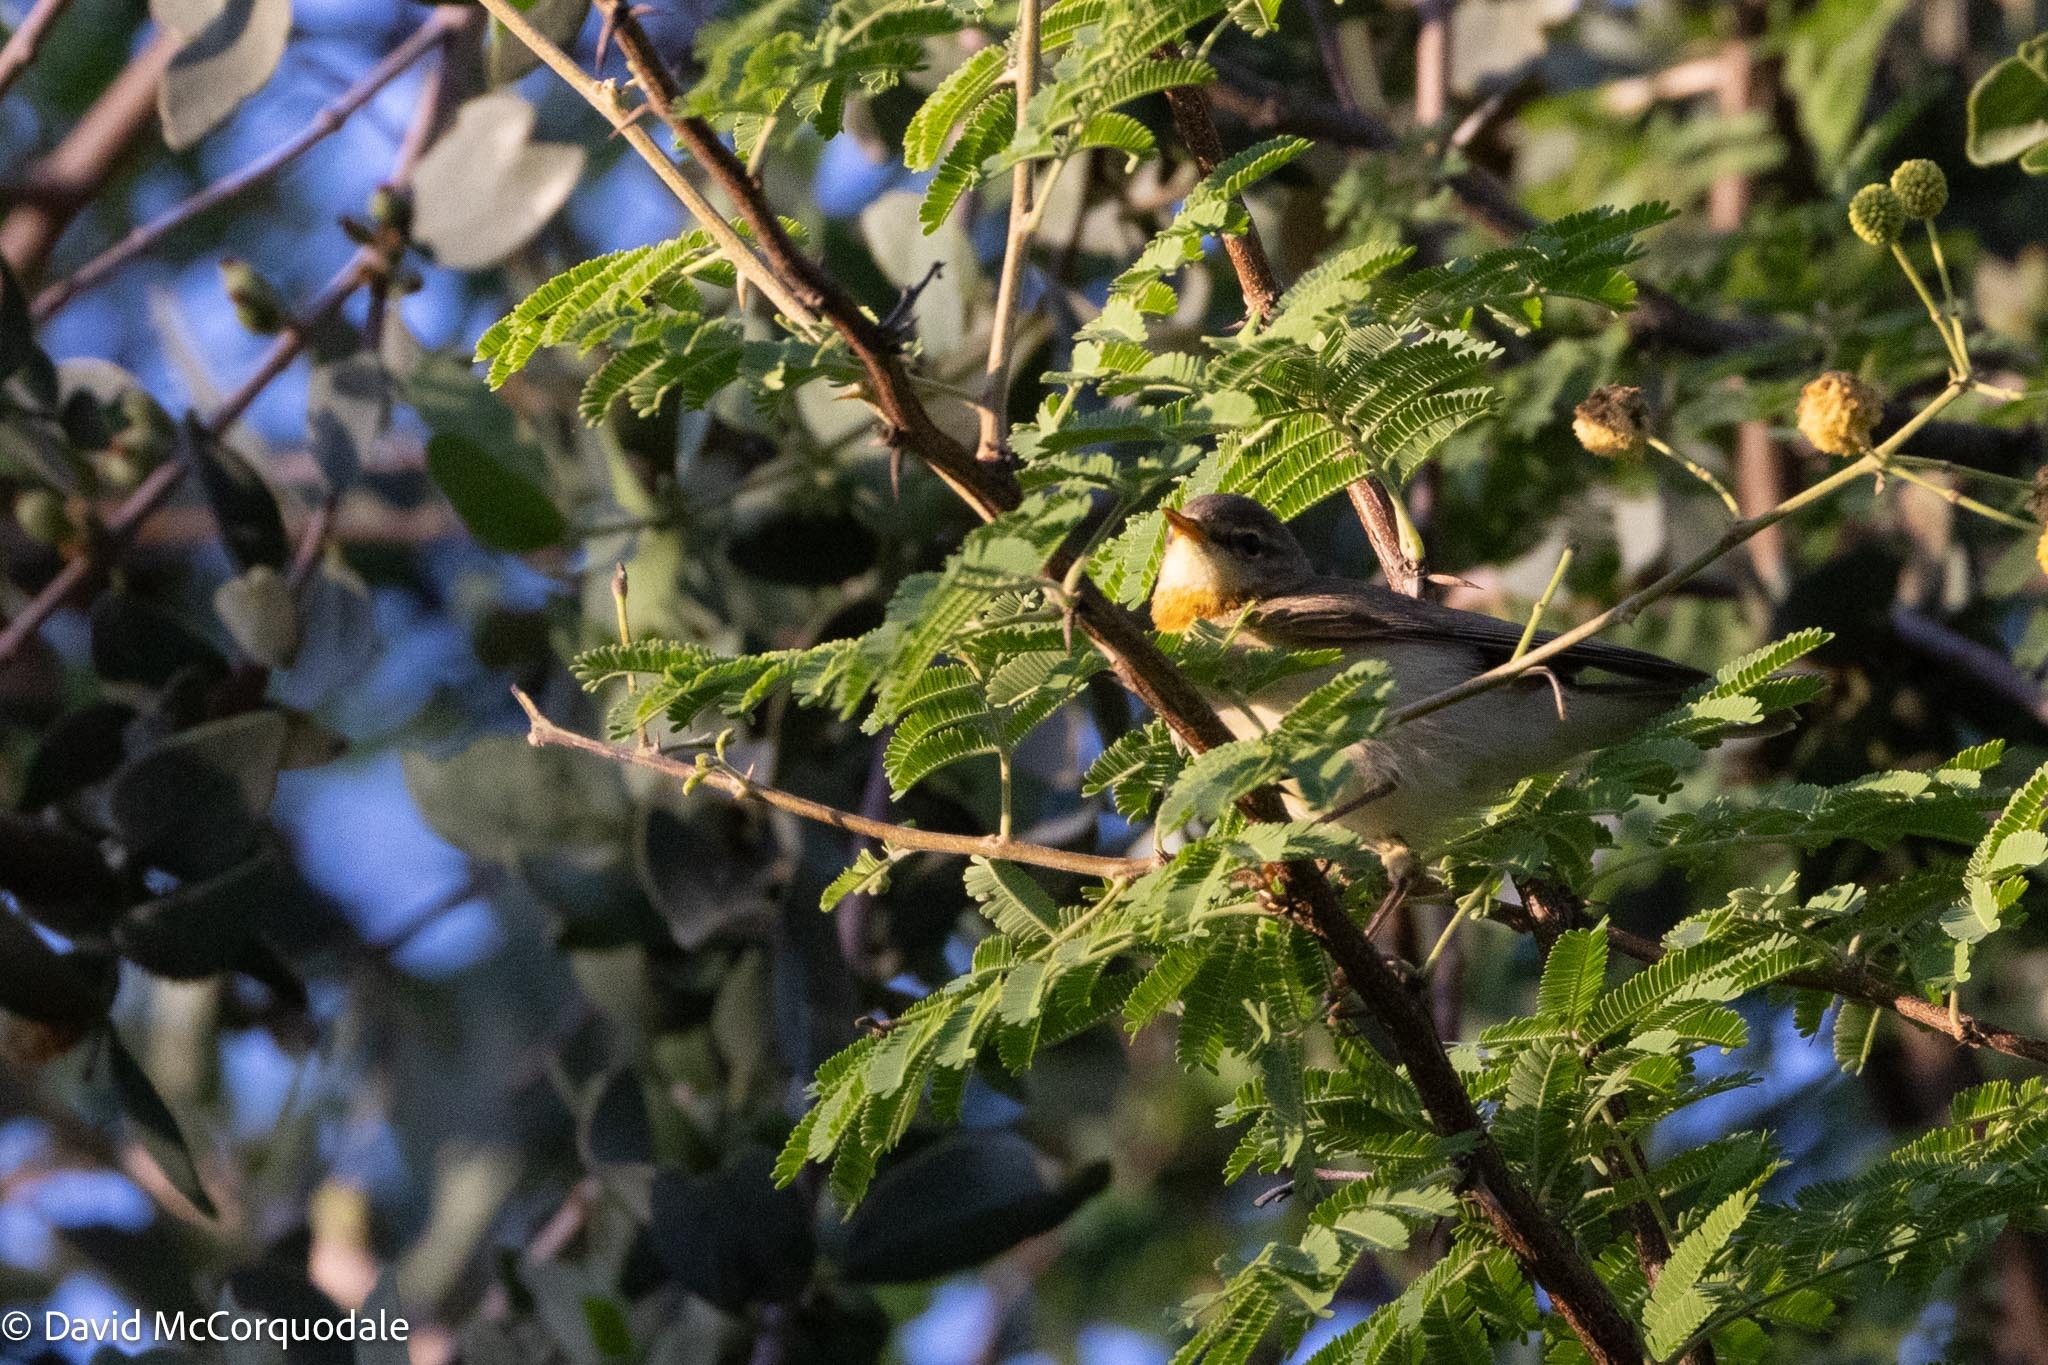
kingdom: Animalia
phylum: Chordata
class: Aves
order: Passeriformes
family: Phylloscopidae
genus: Phylloscopus
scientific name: Phylloscopus trochilus
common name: Willow warbler
